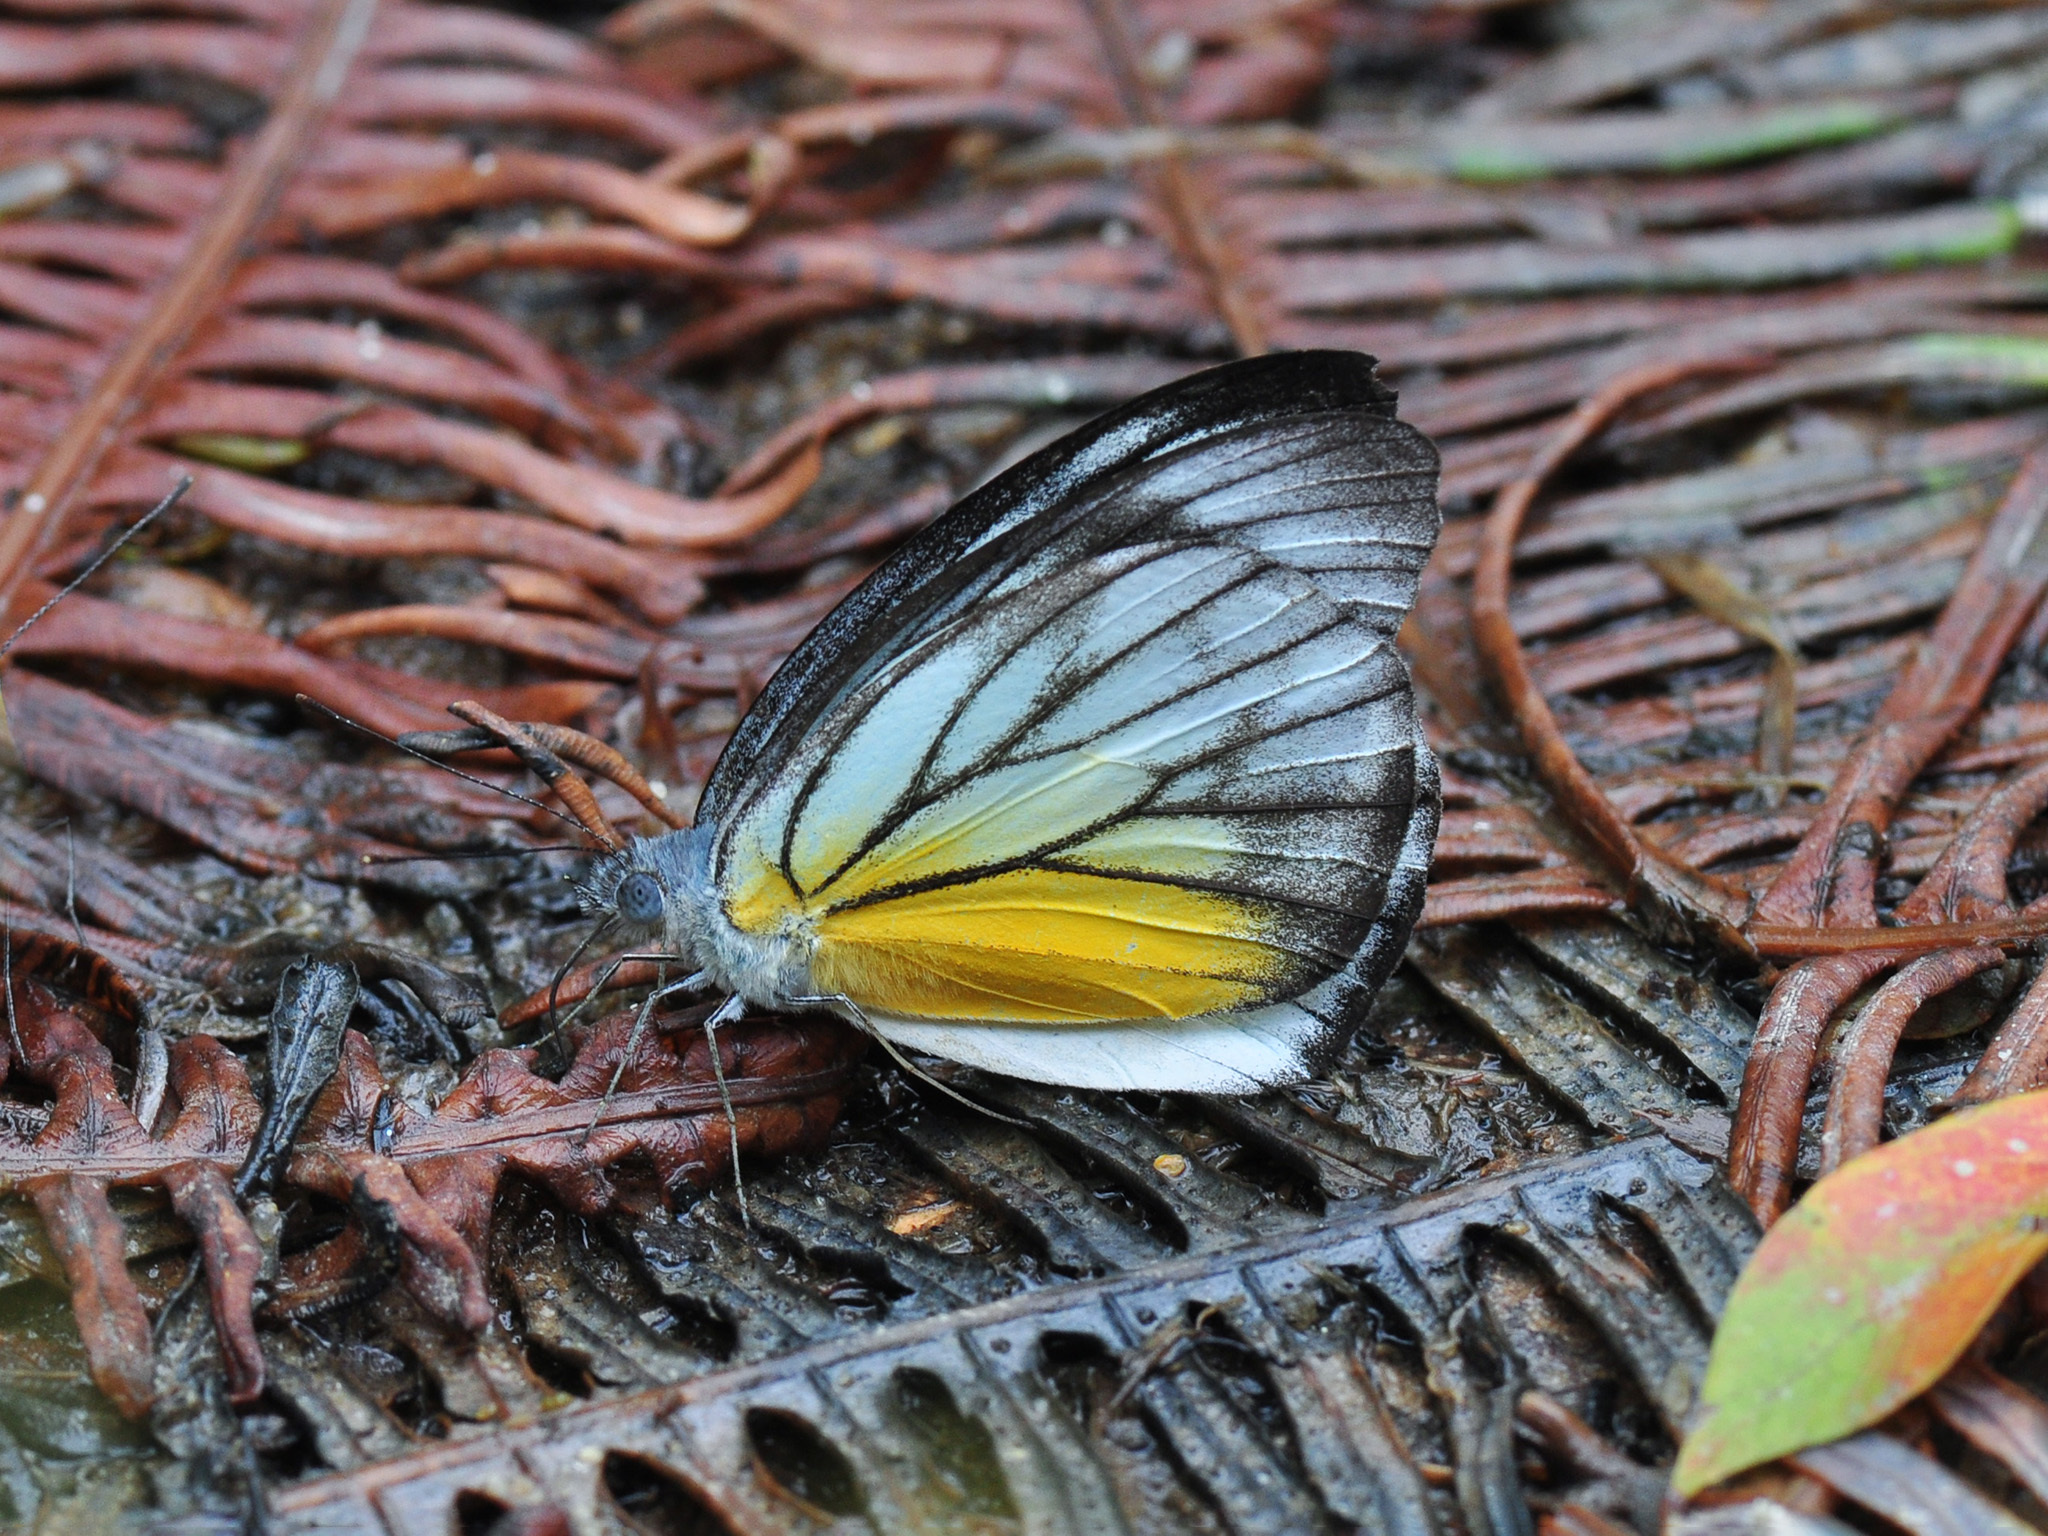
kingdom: Animalia
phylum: Arthropoda
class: Insecta
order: Lepidoptera
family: Pieridae
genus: Appias
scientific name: Appias cardena
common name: Yellow puffin
